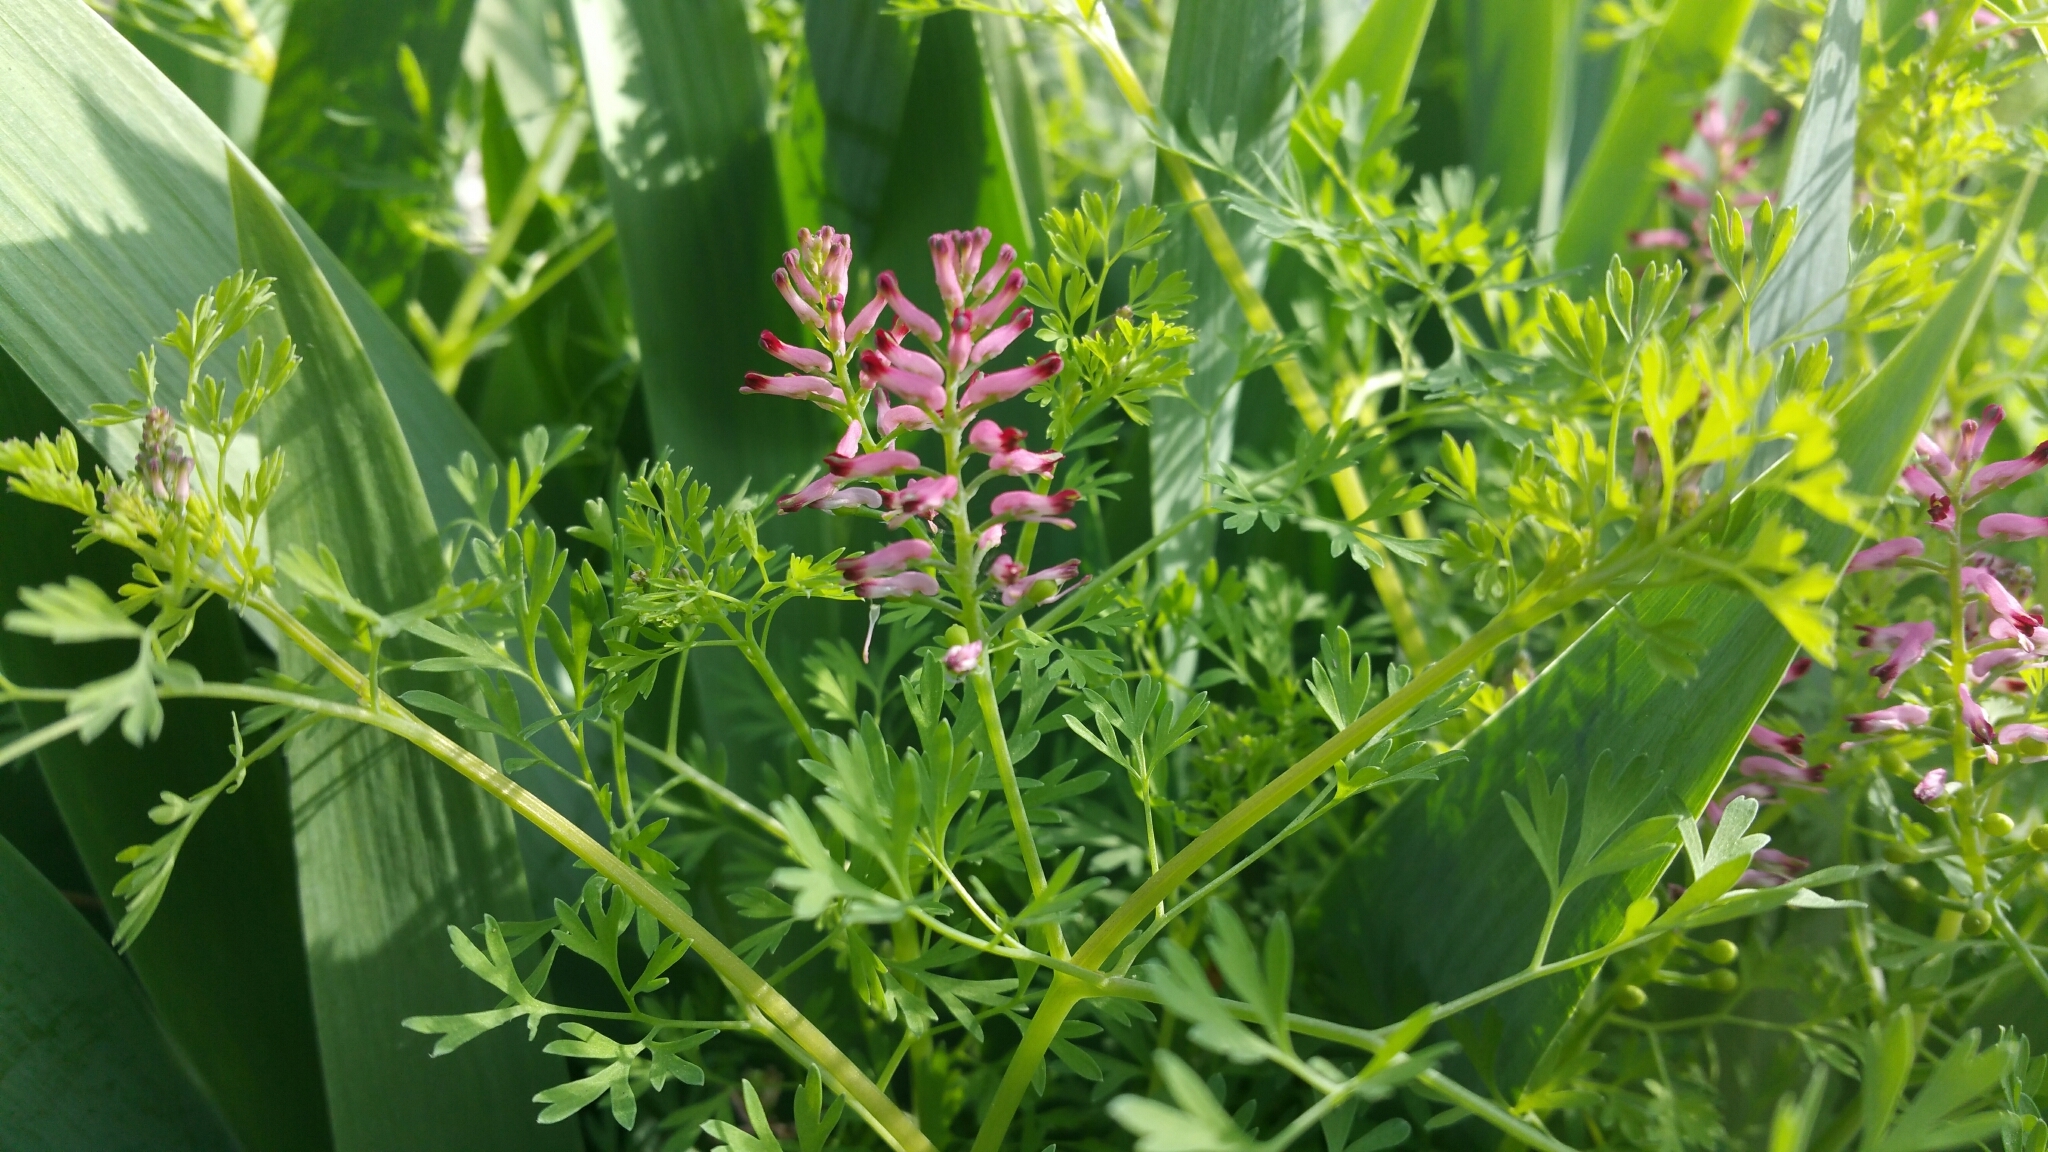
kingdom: Plantae
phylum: Tracheophyta
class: Magnoliopsida
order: Ranunculales
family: Papaveraceae
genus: Fumaria
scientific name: Fumaria officinalis
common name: Common fumitory
